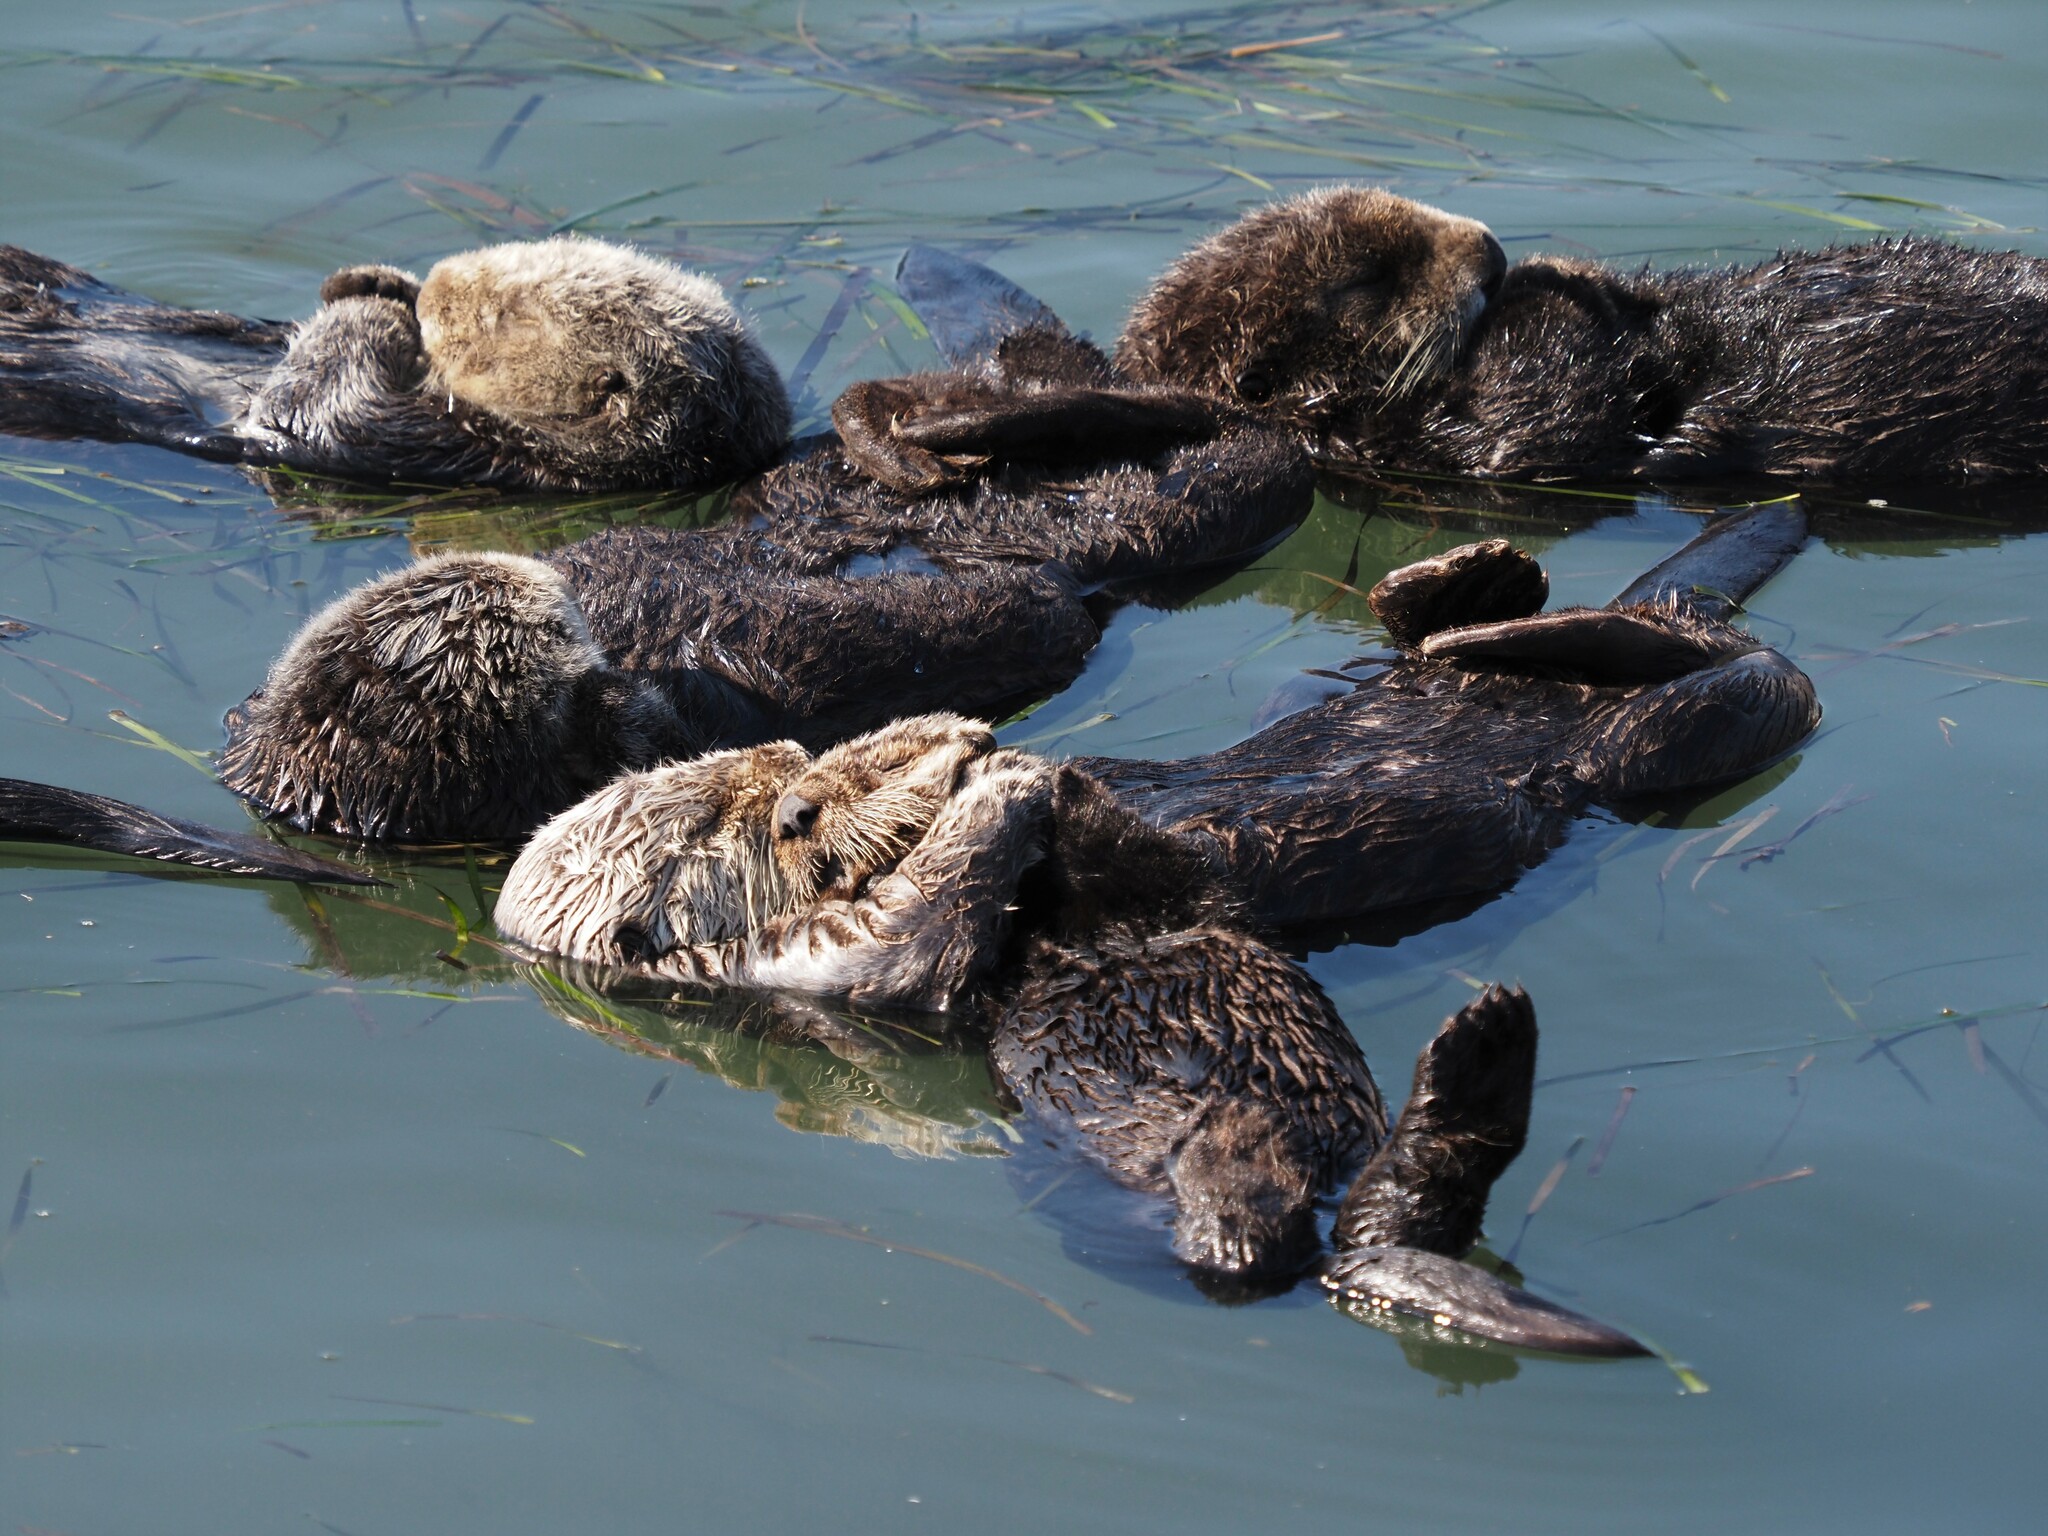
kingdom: Animalia
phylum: Chordata
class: Mammalia
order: Carnivora
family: Mustelidae
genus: Enhydra
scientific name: Enhydra lutris
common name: Sea otter
